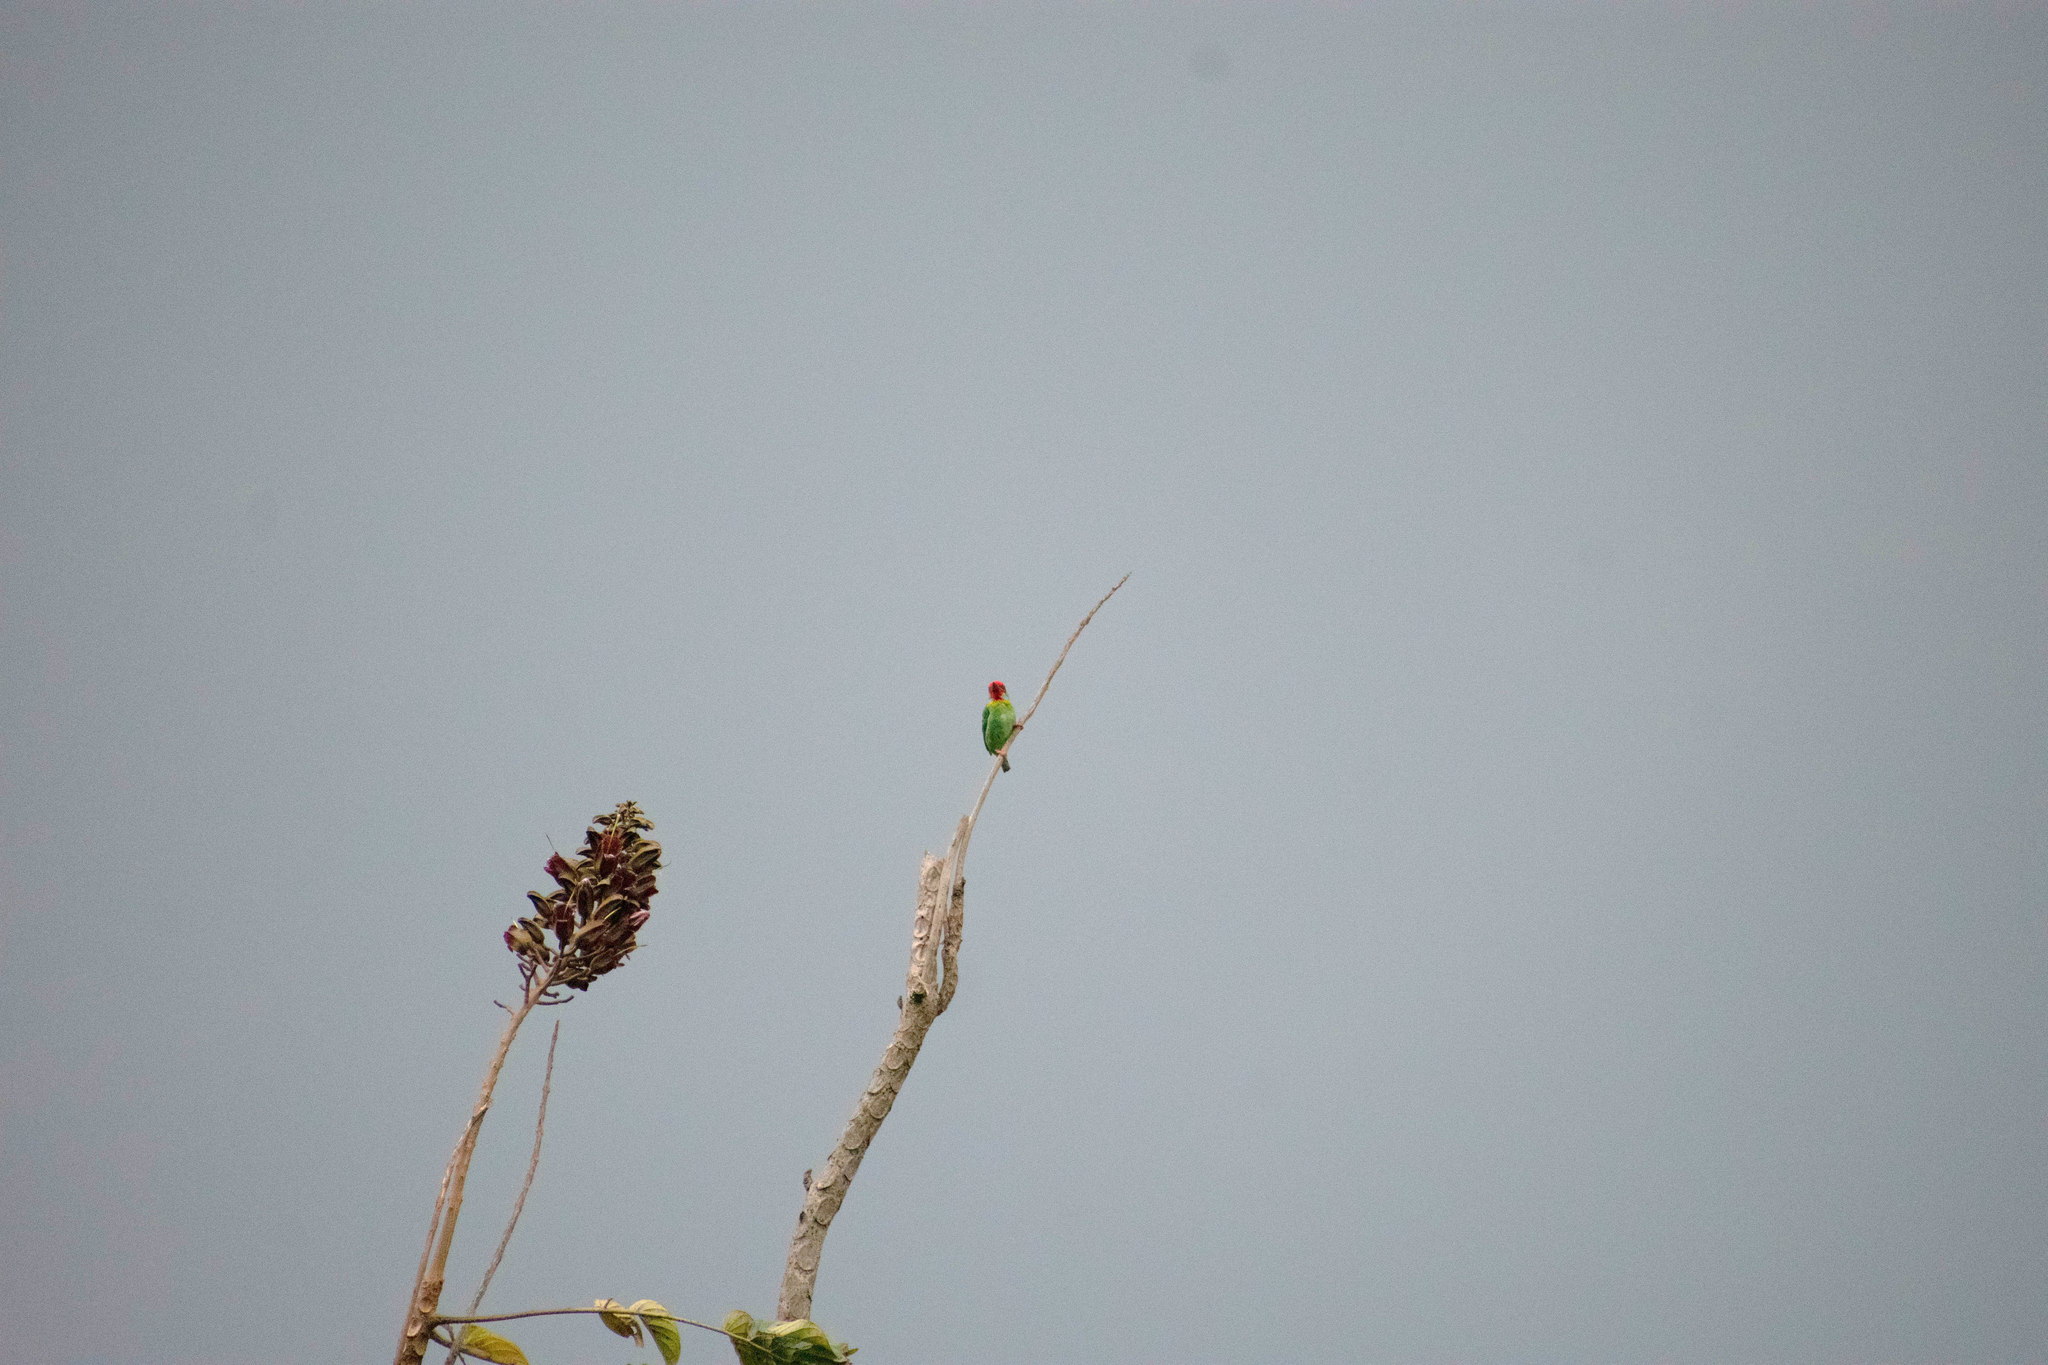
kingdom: Animalia
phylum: Chordata
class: Aves
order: Piciformes
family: Megalaimidae
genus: Psilopogon
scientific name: Psilopogon malabaricus
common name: Malabar barbet
